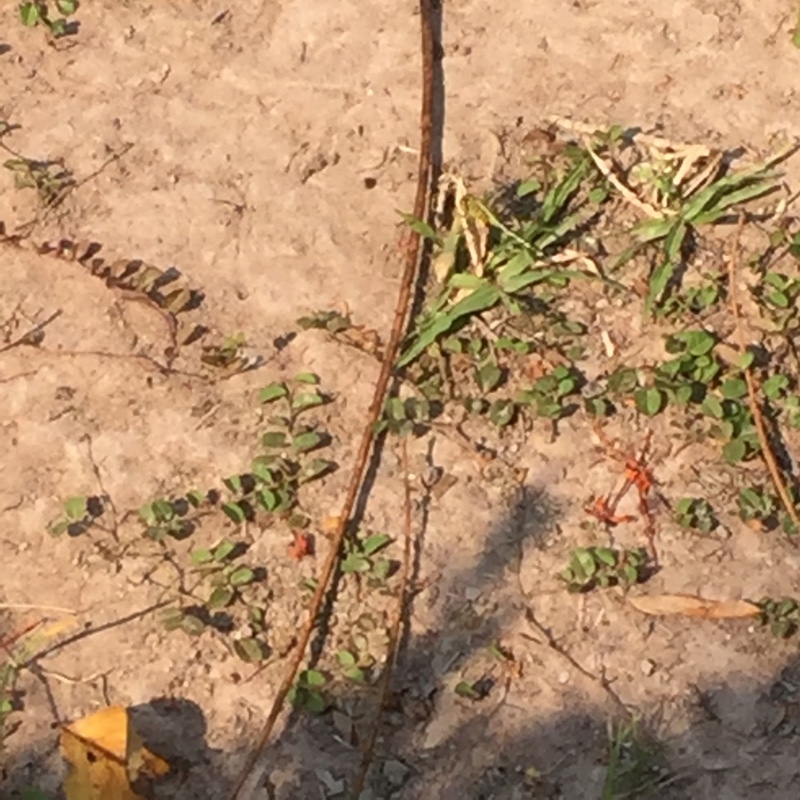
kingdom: Animalia
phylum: Arthropoda
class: Insecta
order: Odonata
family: Libellulidae
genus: Diplacodes
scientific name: Diplacodes trivialis
